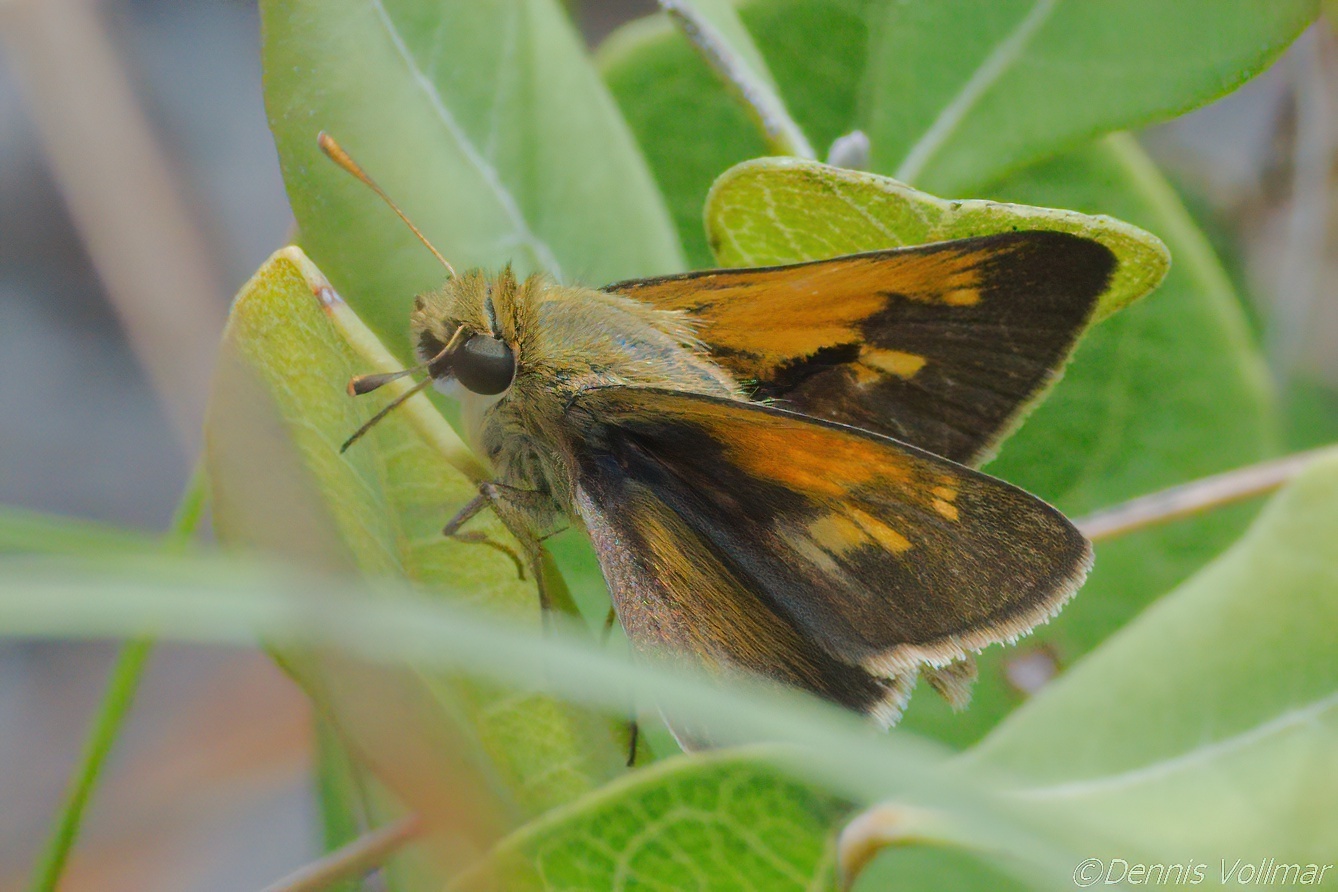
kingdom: Animalia
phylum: Arthropoda
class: Insecta
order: Lepidoptera
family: Hesperiidae
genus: Polites
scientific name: Polites themistocles
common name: Tawny-edged skipper
